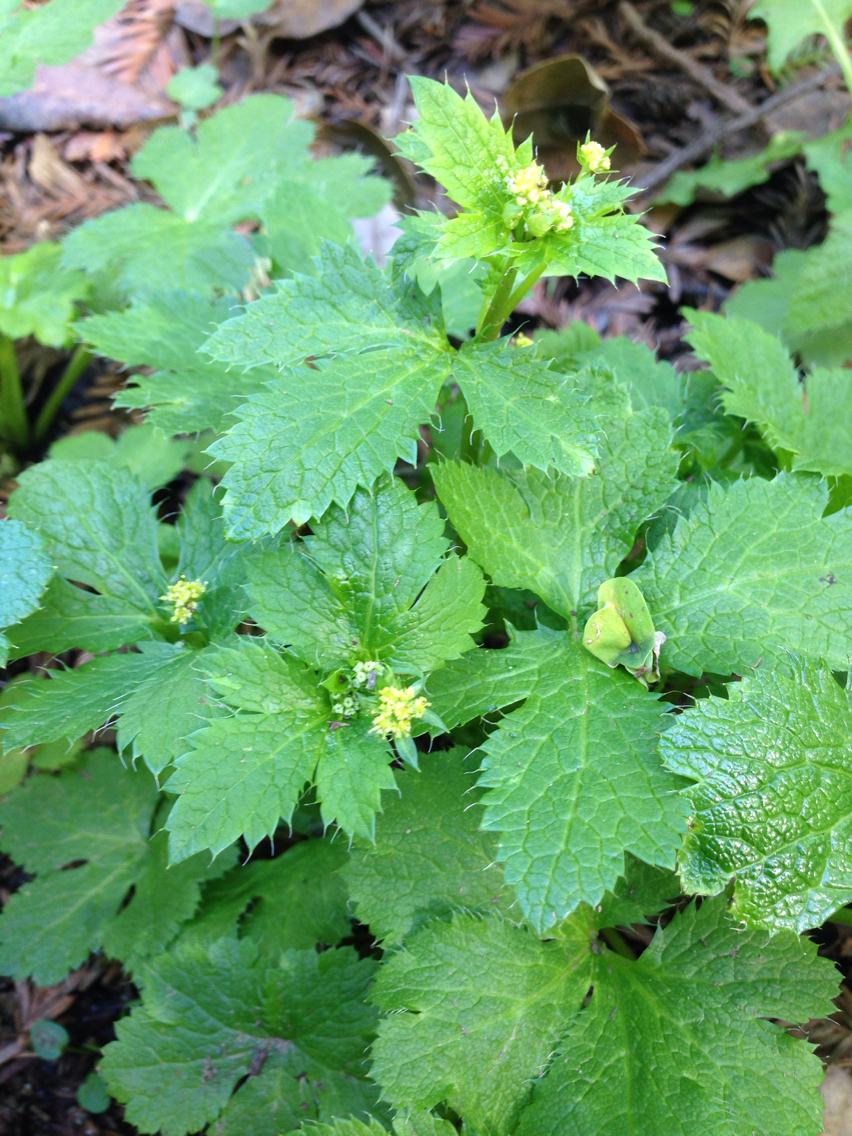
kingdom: Plantae
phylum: Tracheophyta
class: Magnoliopsida
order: Apiales
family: Apiaceae
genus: Sanicula
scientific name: Sanicula crassicaulis
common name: Western snakeroot
